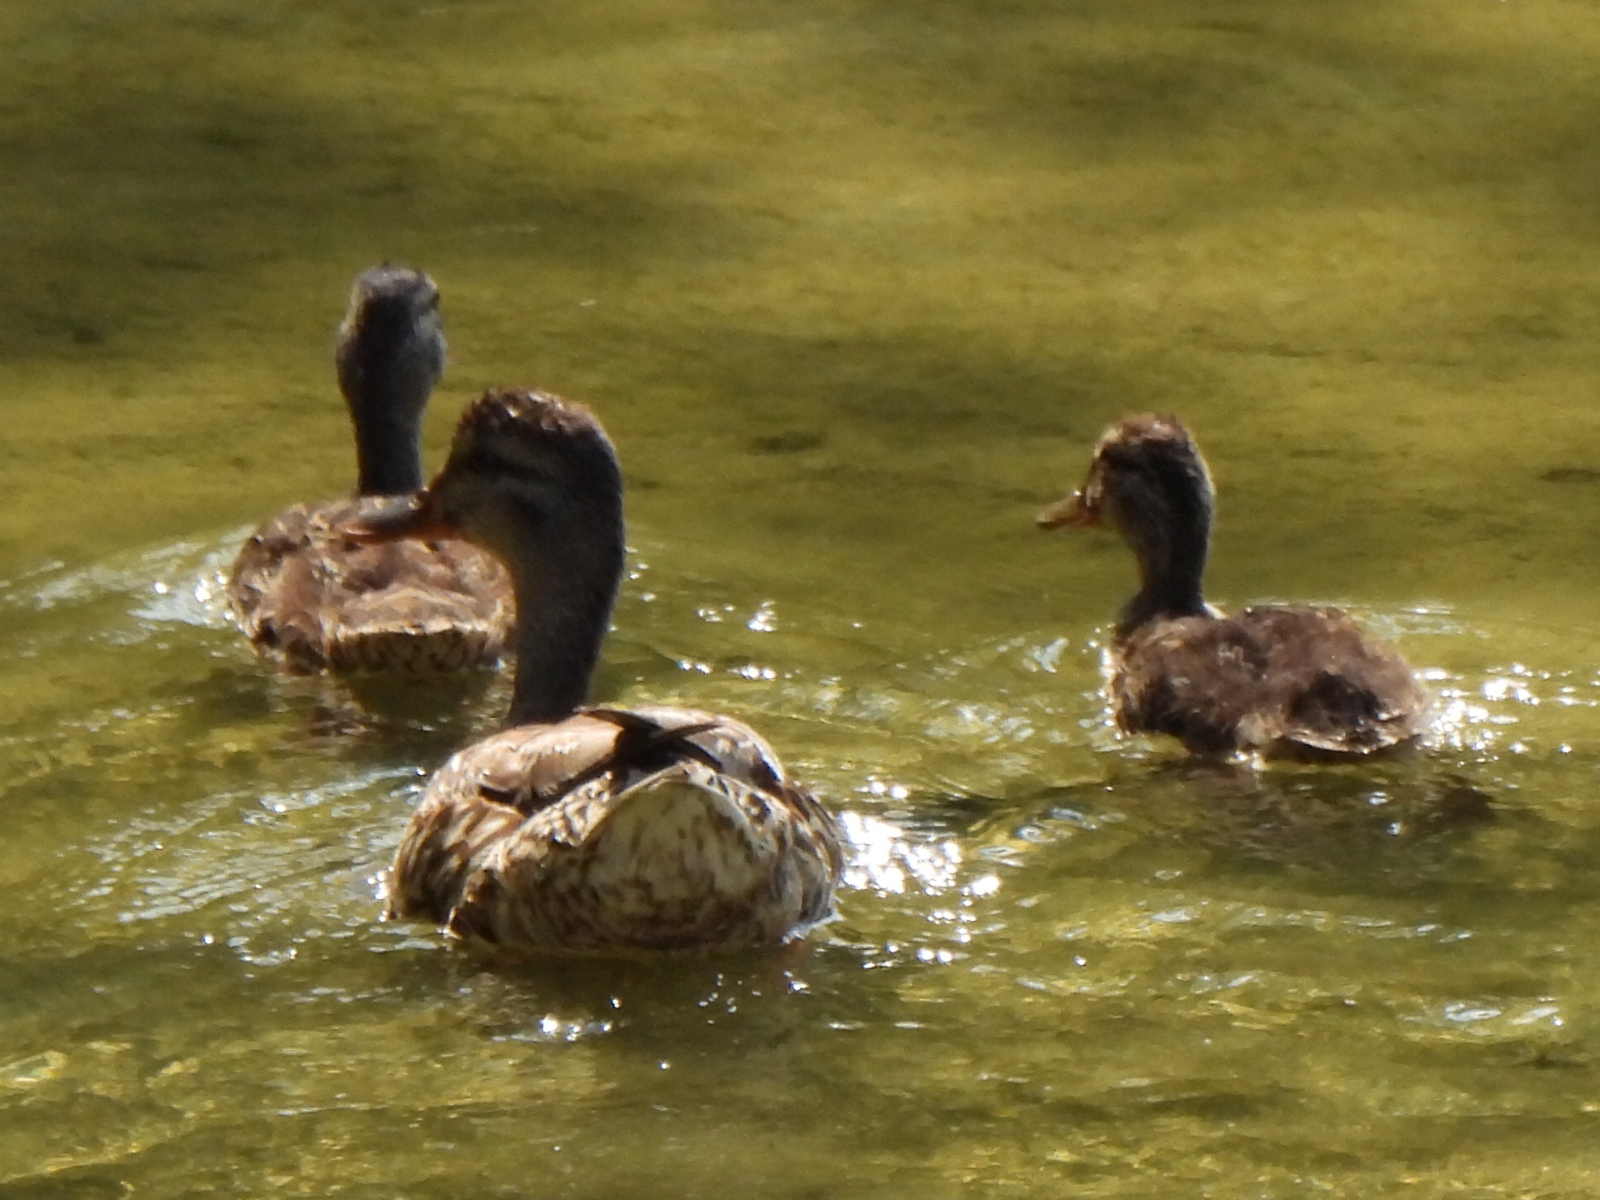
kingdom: Animalia
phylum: Chordata
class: Aves
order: Anseriformes
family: Anatidae
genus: Anas
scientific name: Anas platyrhynchos
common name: Mallard
